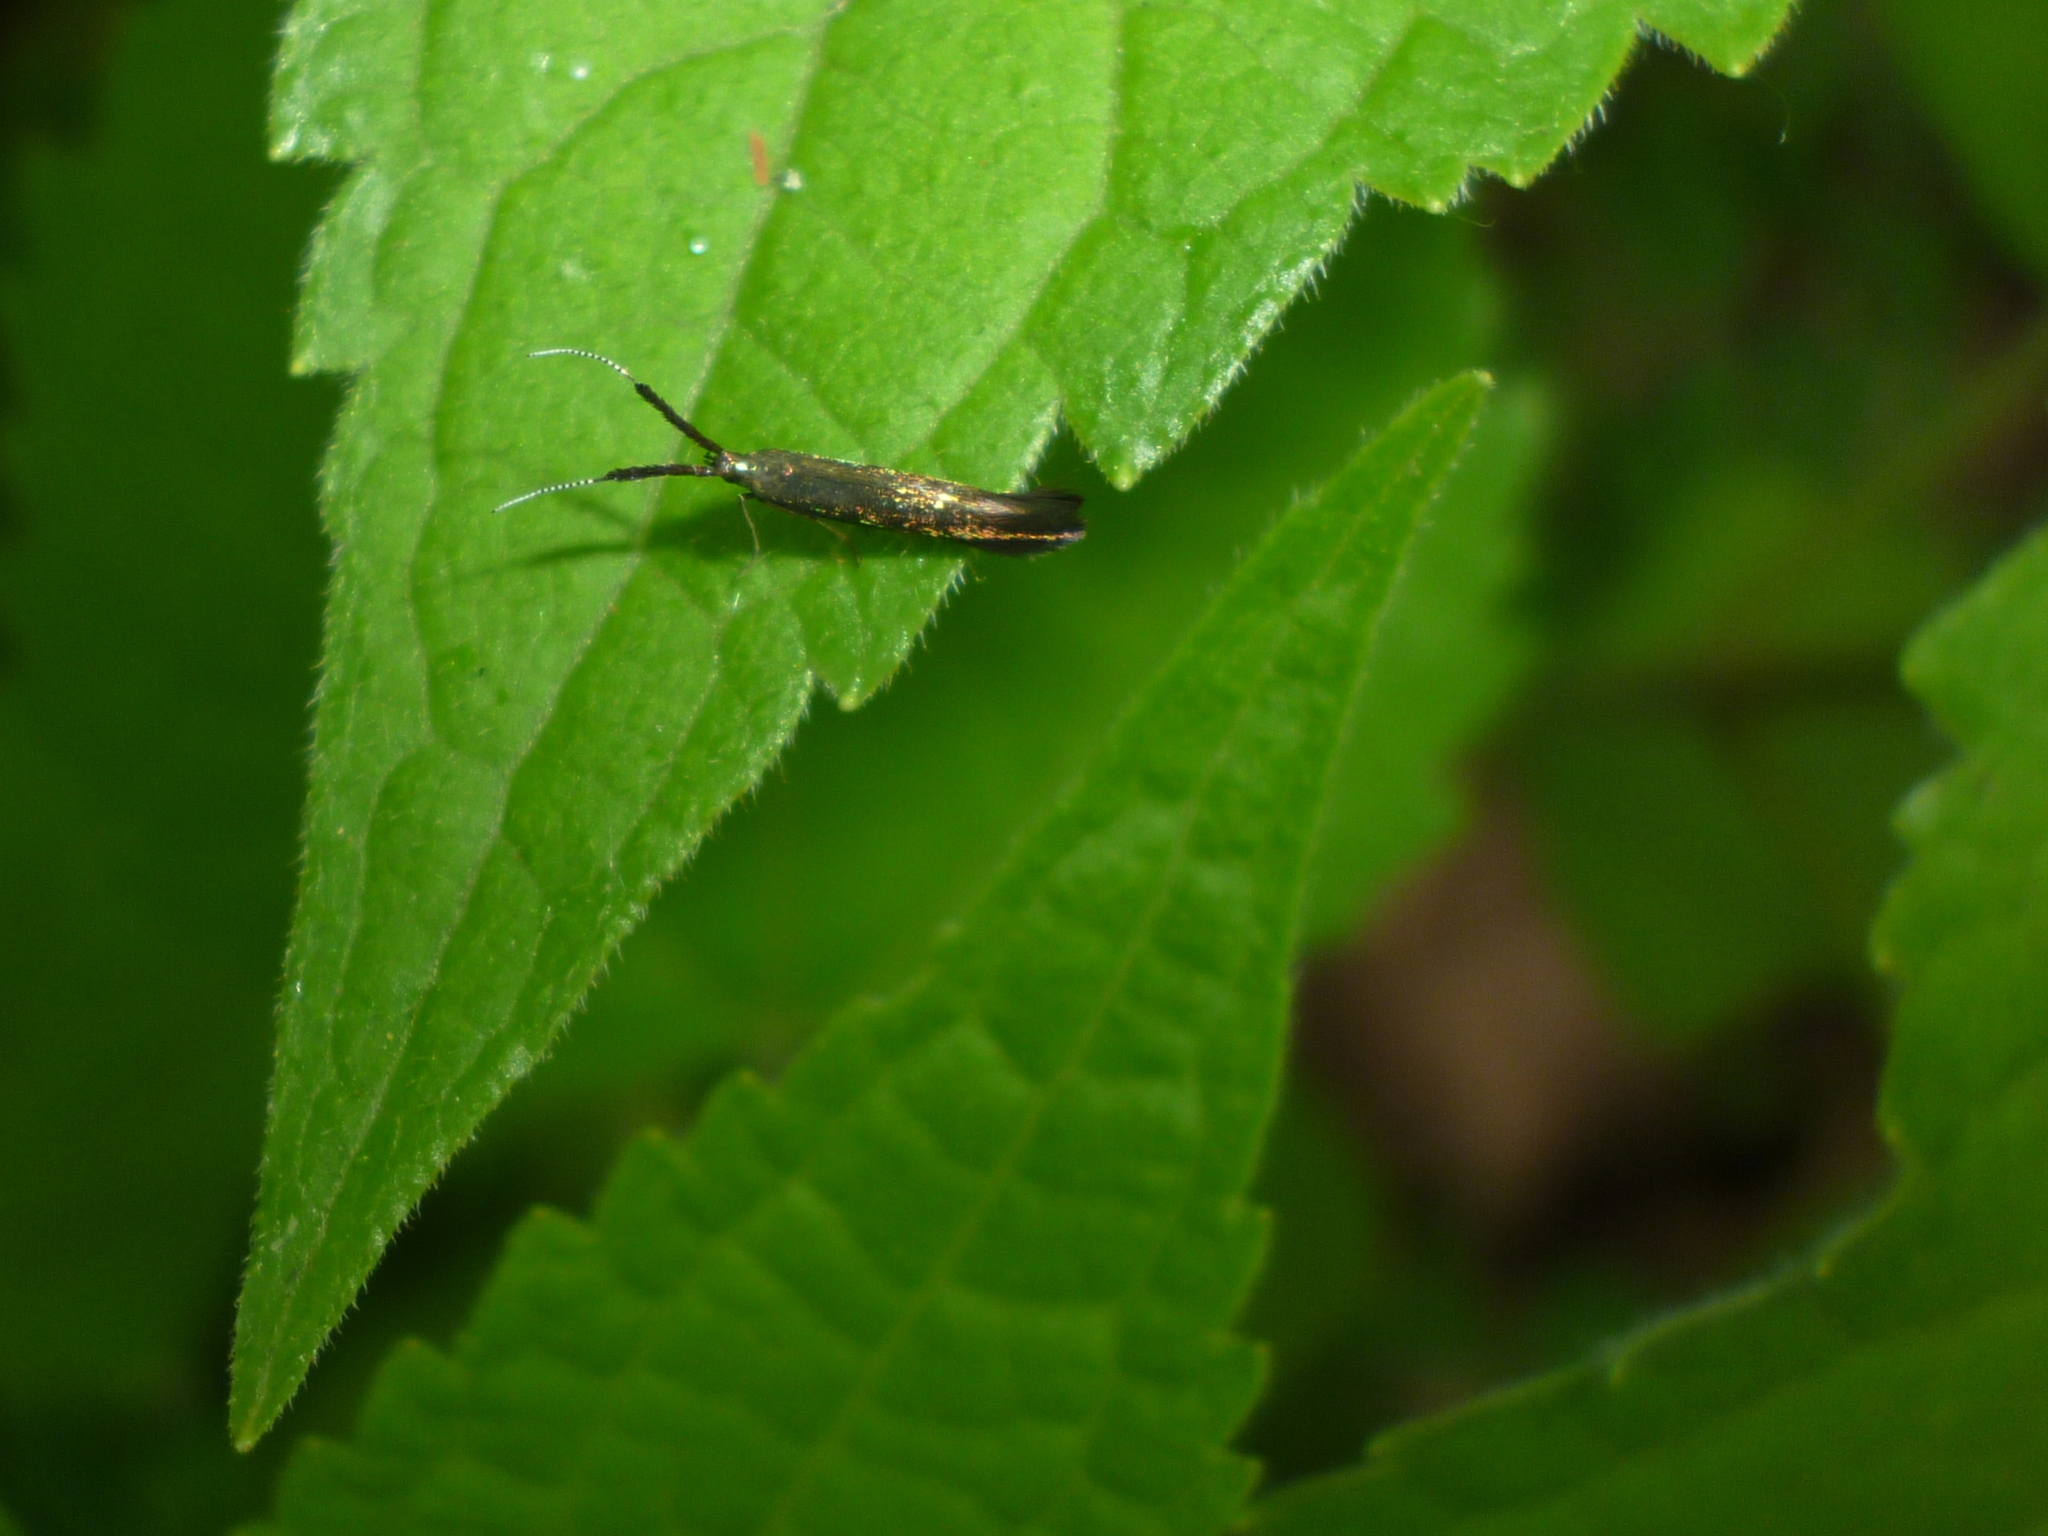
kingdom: Animalia
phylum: Arthropoda
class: Insecta
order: Lepidoptera
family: Coleophoridae
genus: Coleophora
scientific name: Coleophora mayrella
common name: Meadow case-bearer
